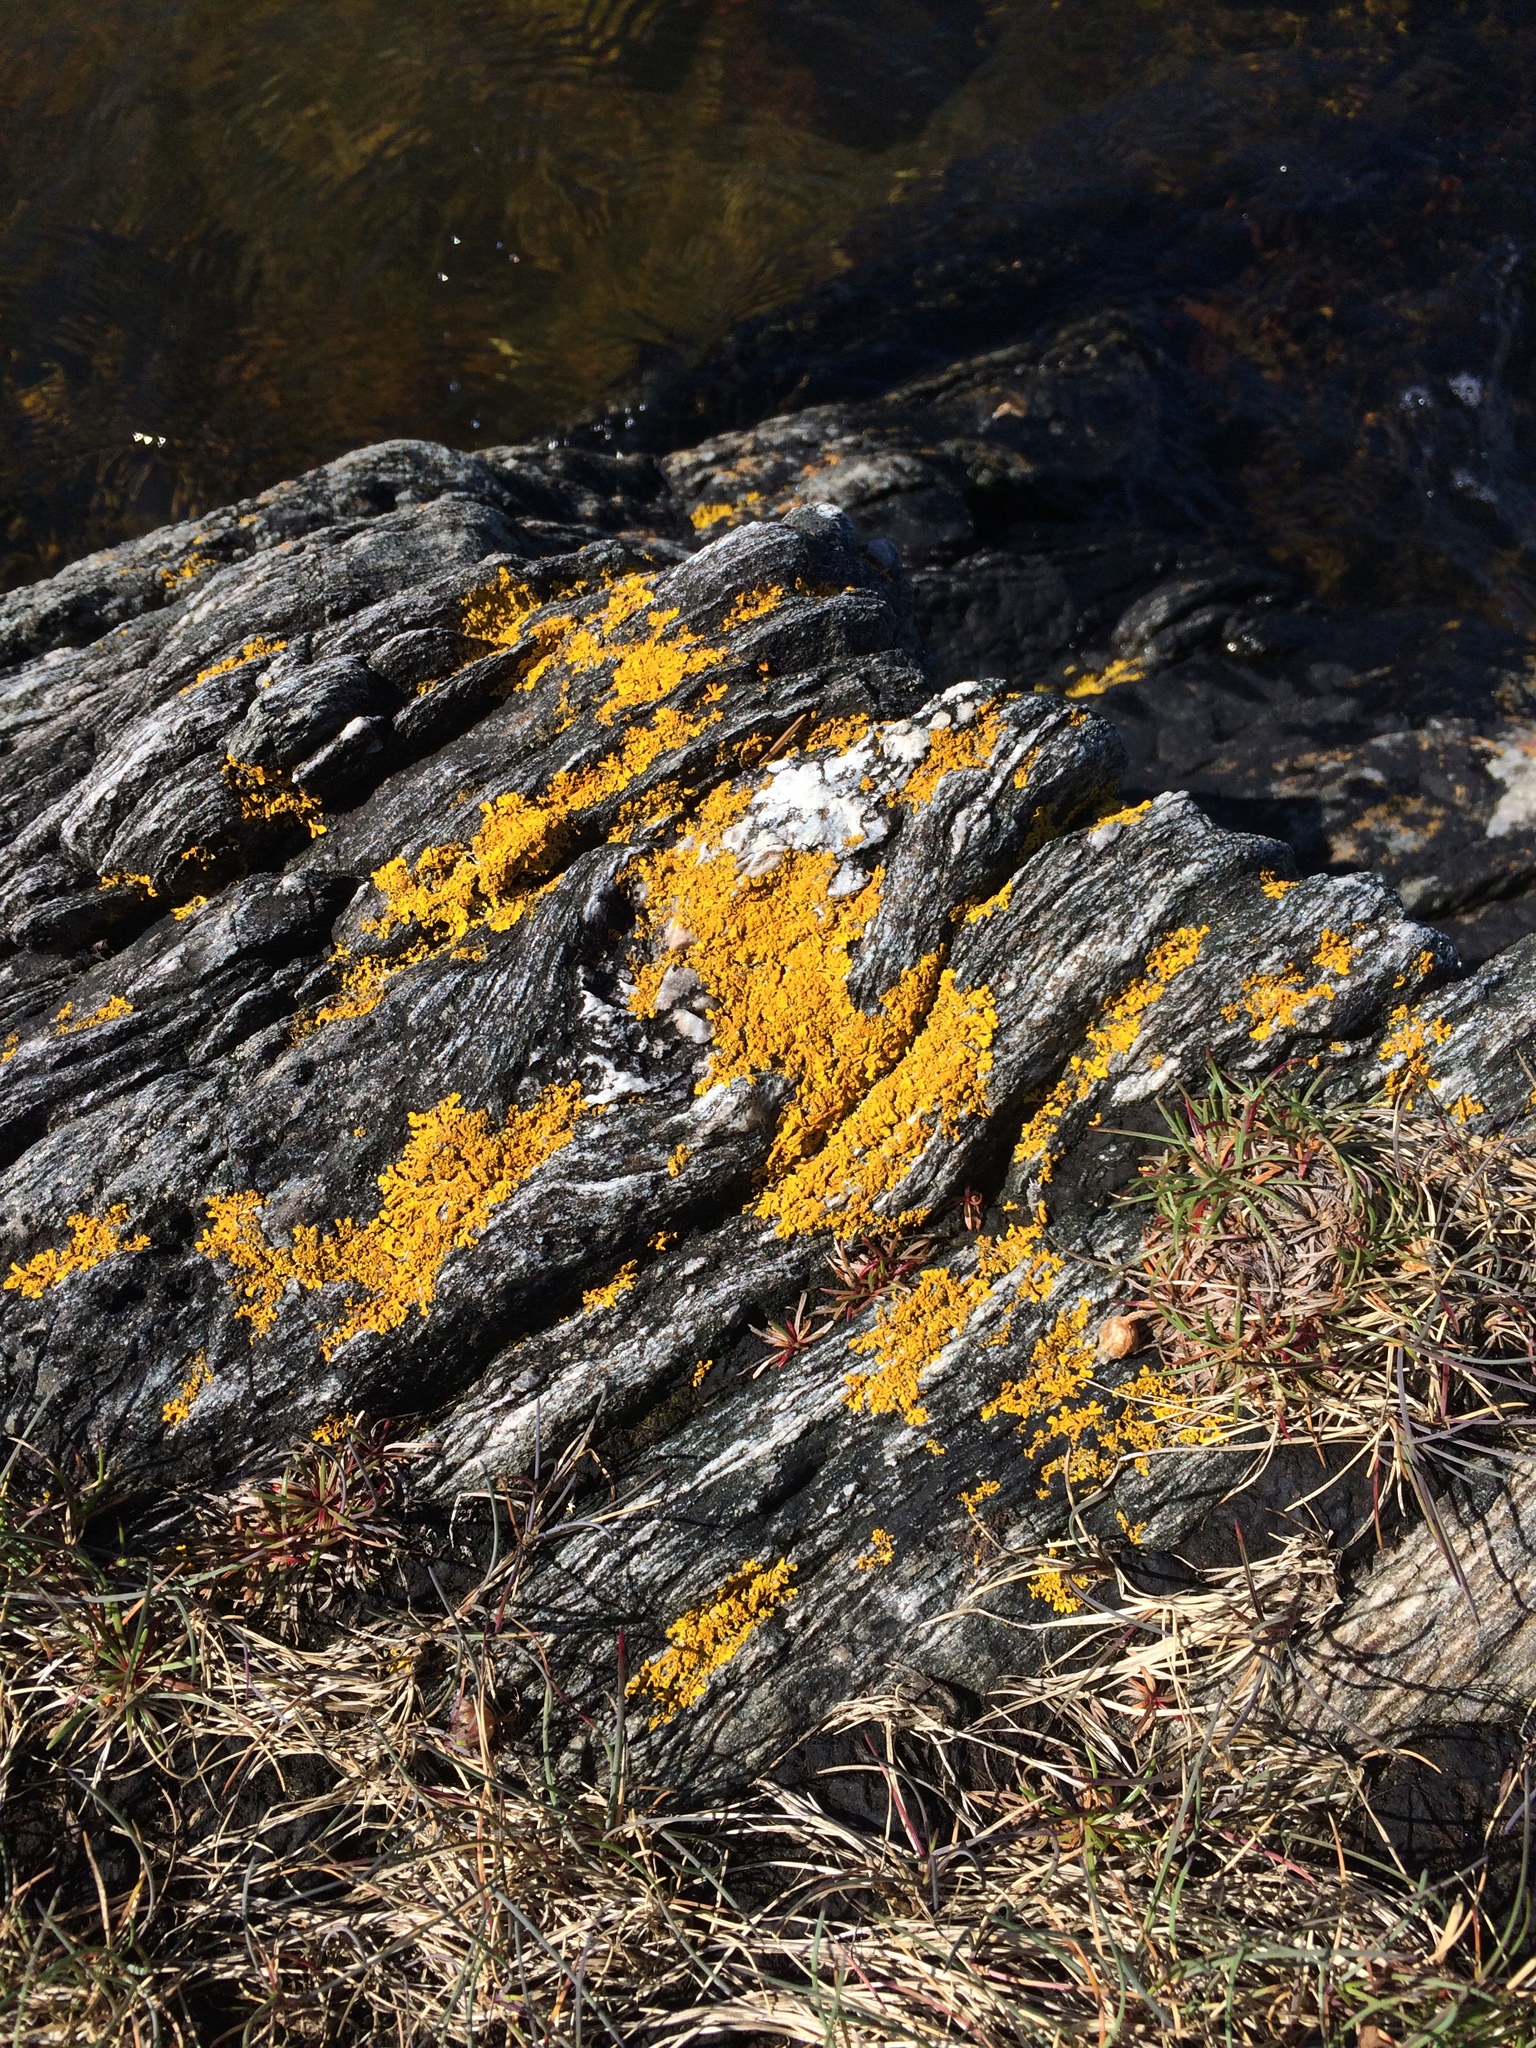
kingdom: Fungi
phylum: Ascomycota
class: Lecanoromycetes
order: Teloschistales
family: Teloschistaceae
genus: Xanthoria
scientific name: Xanthoria parietina
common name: Common orange lichen
